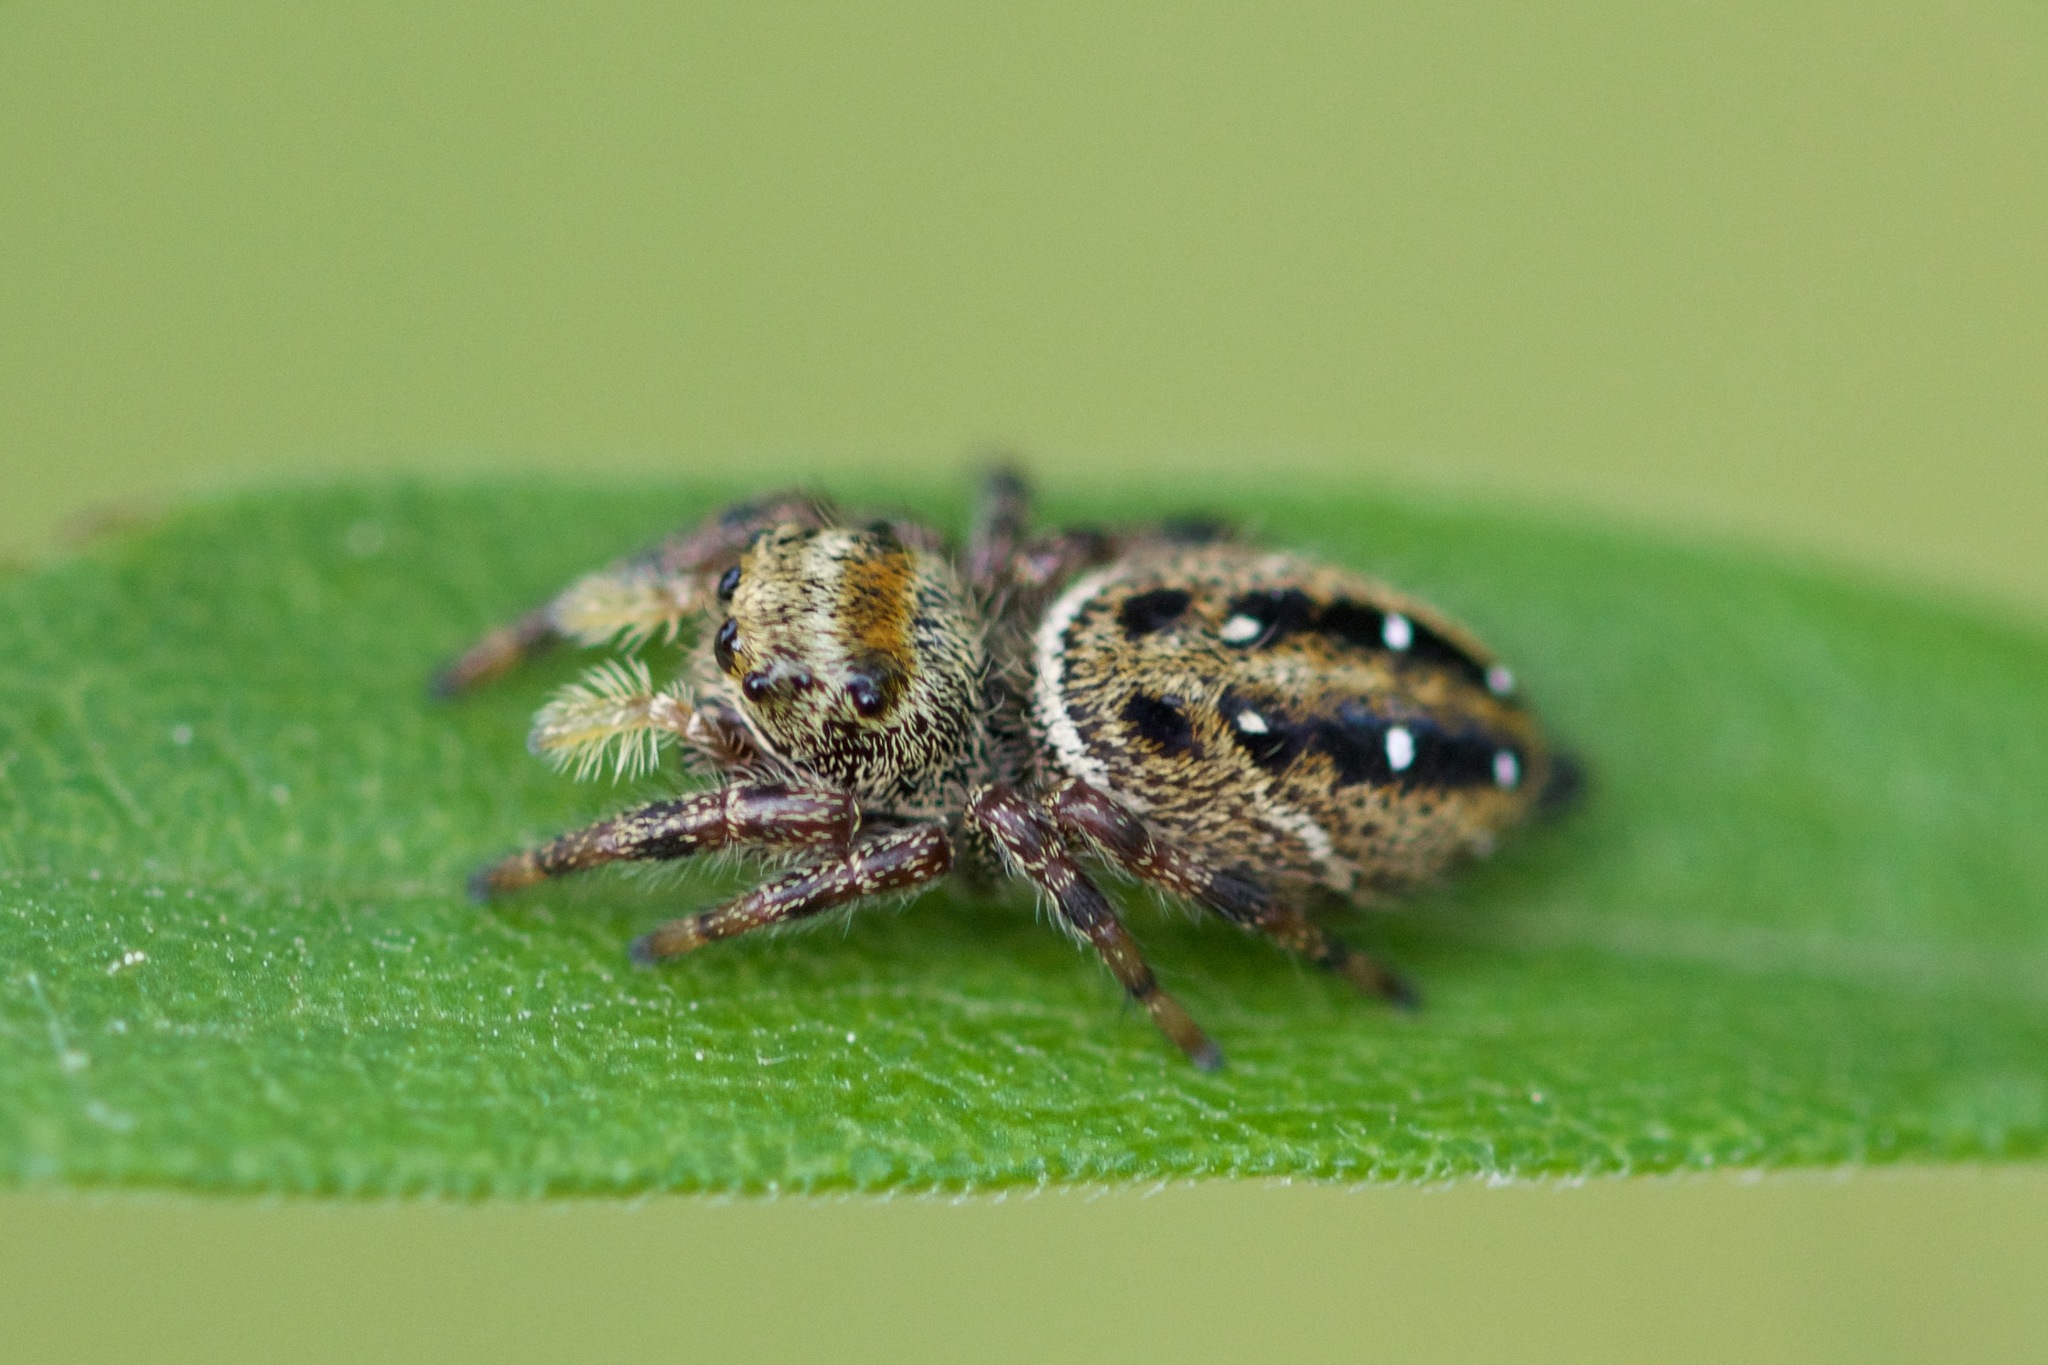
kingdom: Animalia
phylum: Arthropoda
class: Arachnida
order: Araneae
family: Salticidae
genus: Phidippus
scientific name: Phidippus clarus
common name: Brilliant jumping spider
